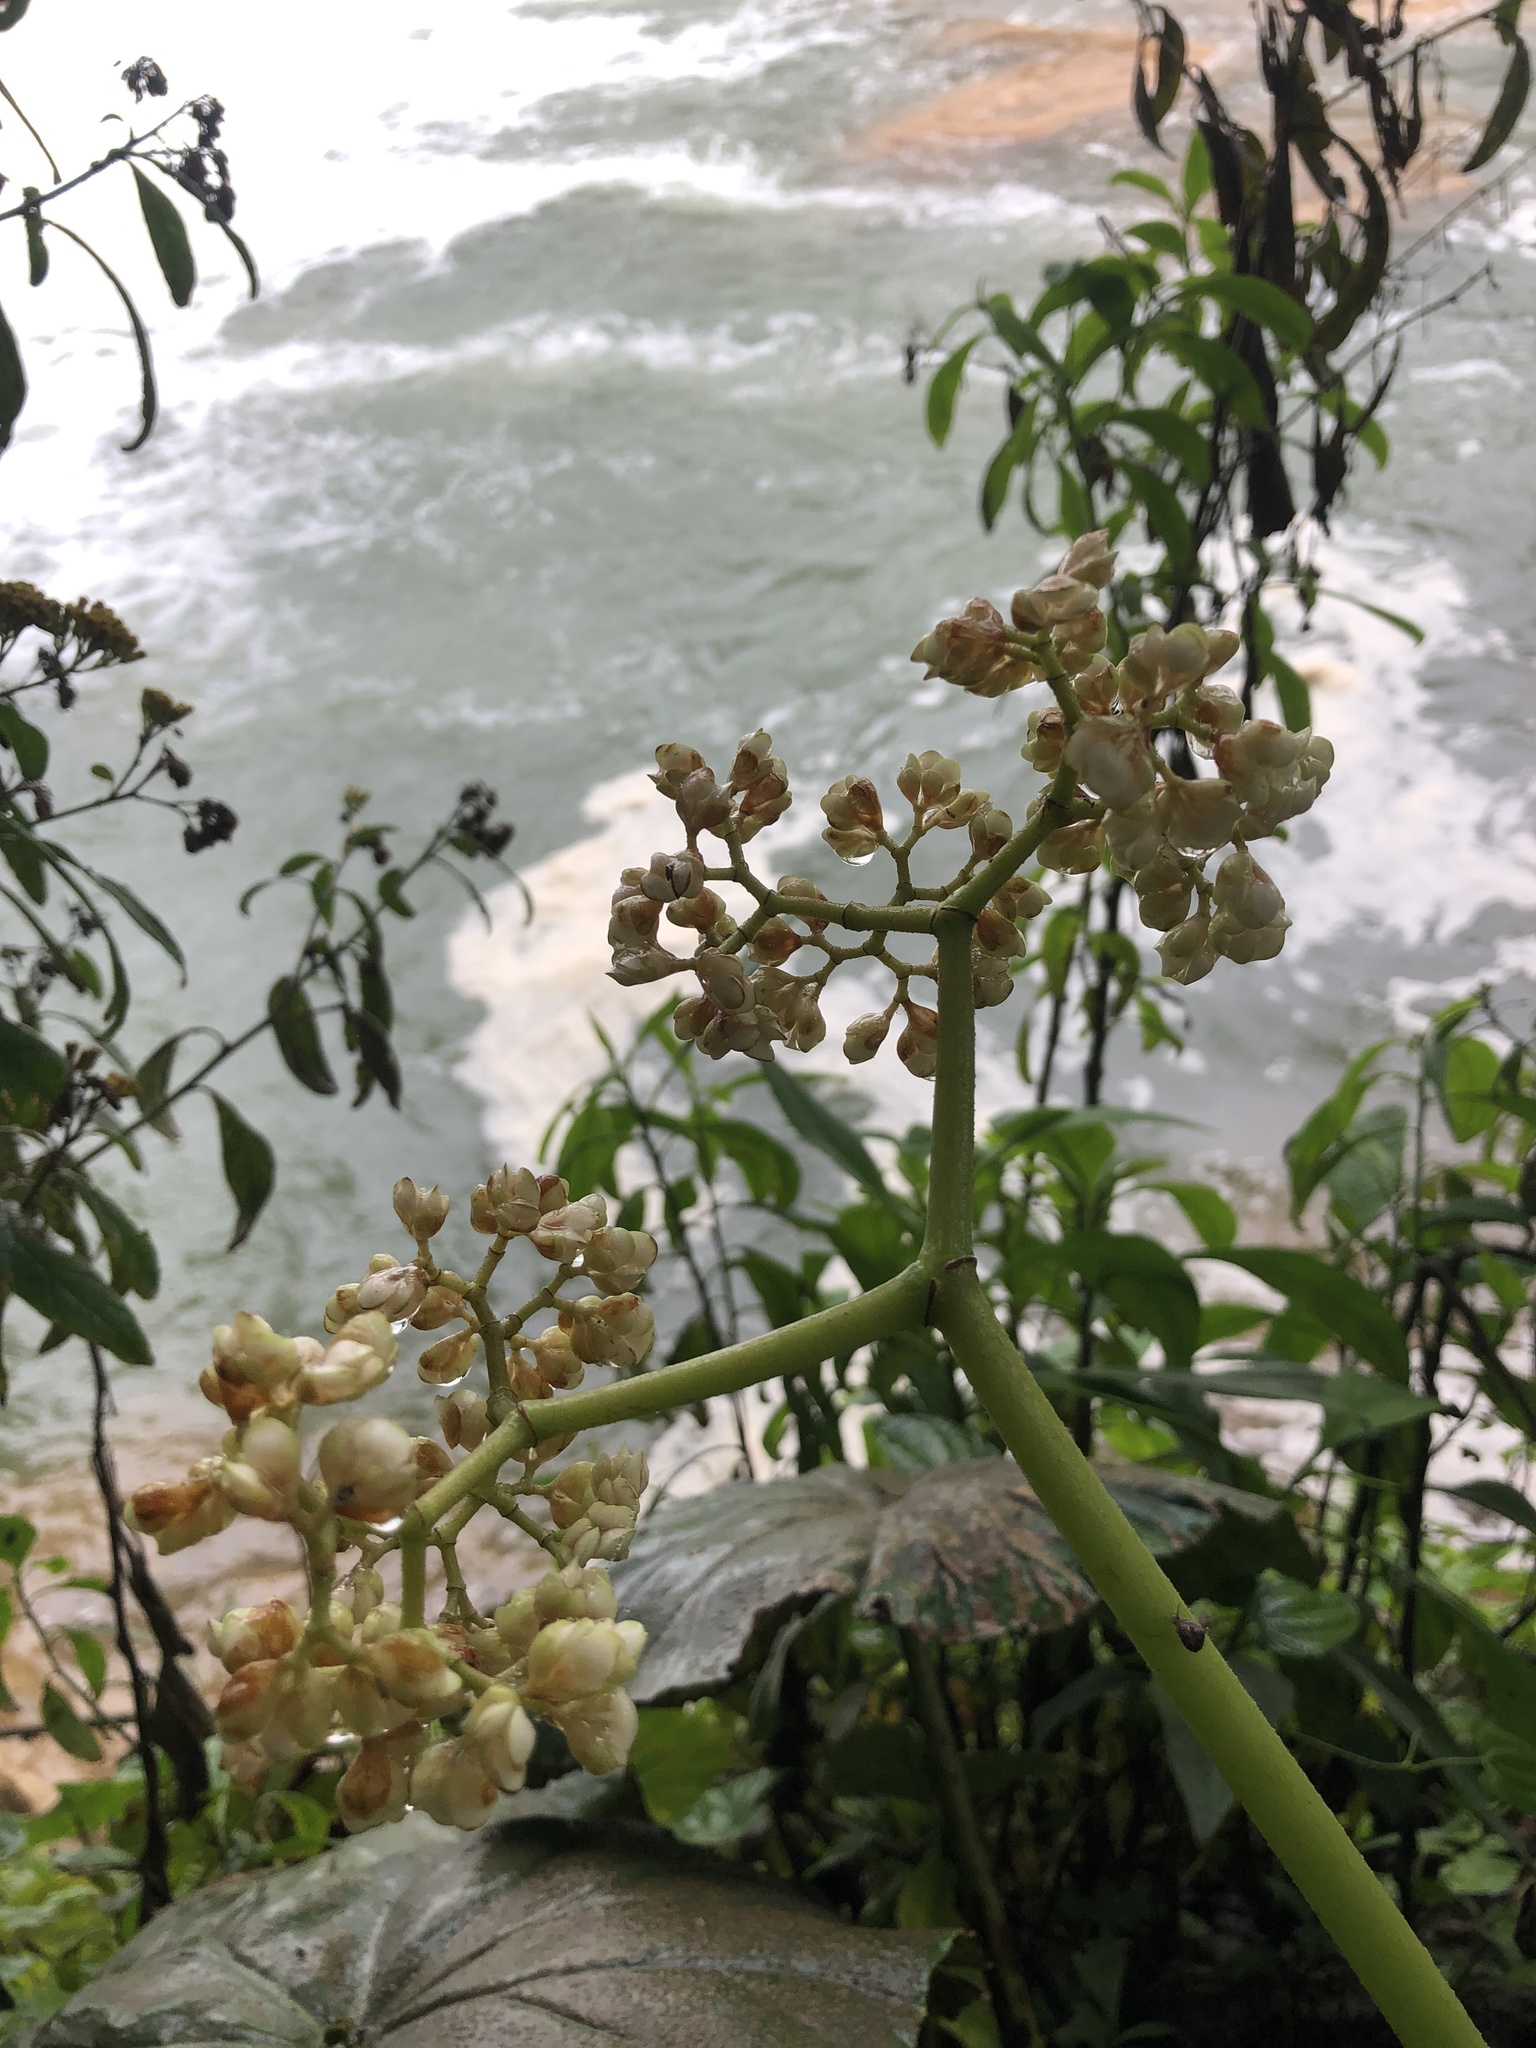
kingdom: Plantae
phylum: Tracheophyta
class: Magnoliopsida
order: Cucurbitales
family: Begoniaceae
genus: Begonia
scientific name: Begonia nelumbiifolia
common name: Lilypad begonia
